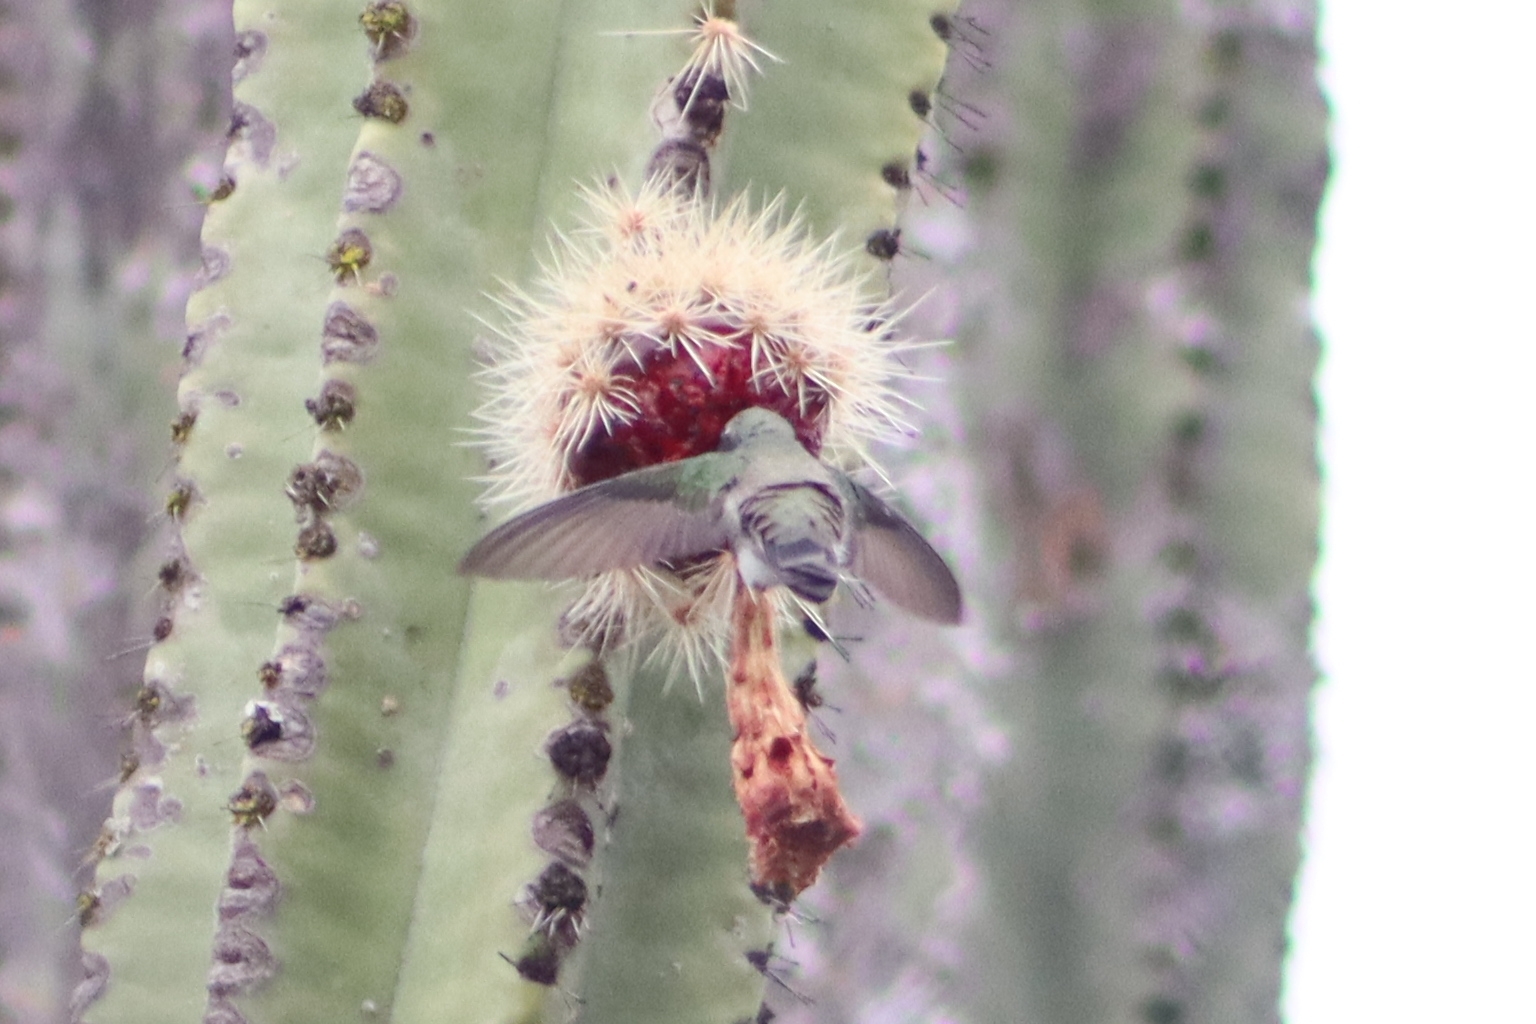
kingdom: Animalia
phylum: Chordata
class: Aves
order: Apodiformes
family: Trochilidae
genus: Cynanthus
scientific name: Cynanthus latirostris
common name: Broad-billed hummingbird
